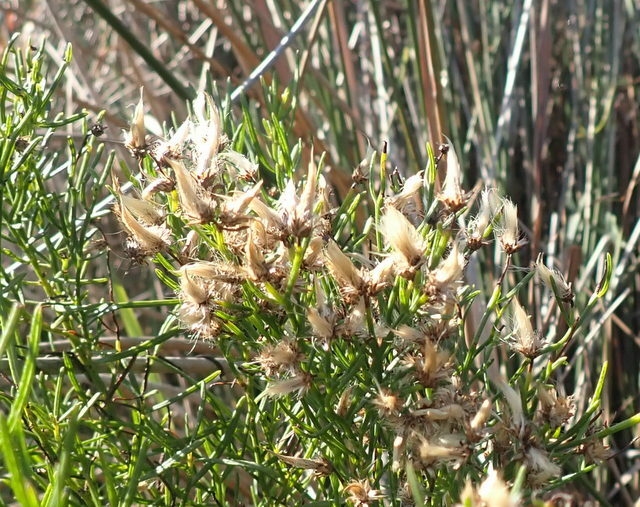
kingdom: Plantae
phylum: Tracheophyta
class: Magnoliopsida
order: Asterales
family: Asteraceae
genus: Baccharis
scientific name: Baccharis angustifolia
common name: Narrow-leaf baccharis
